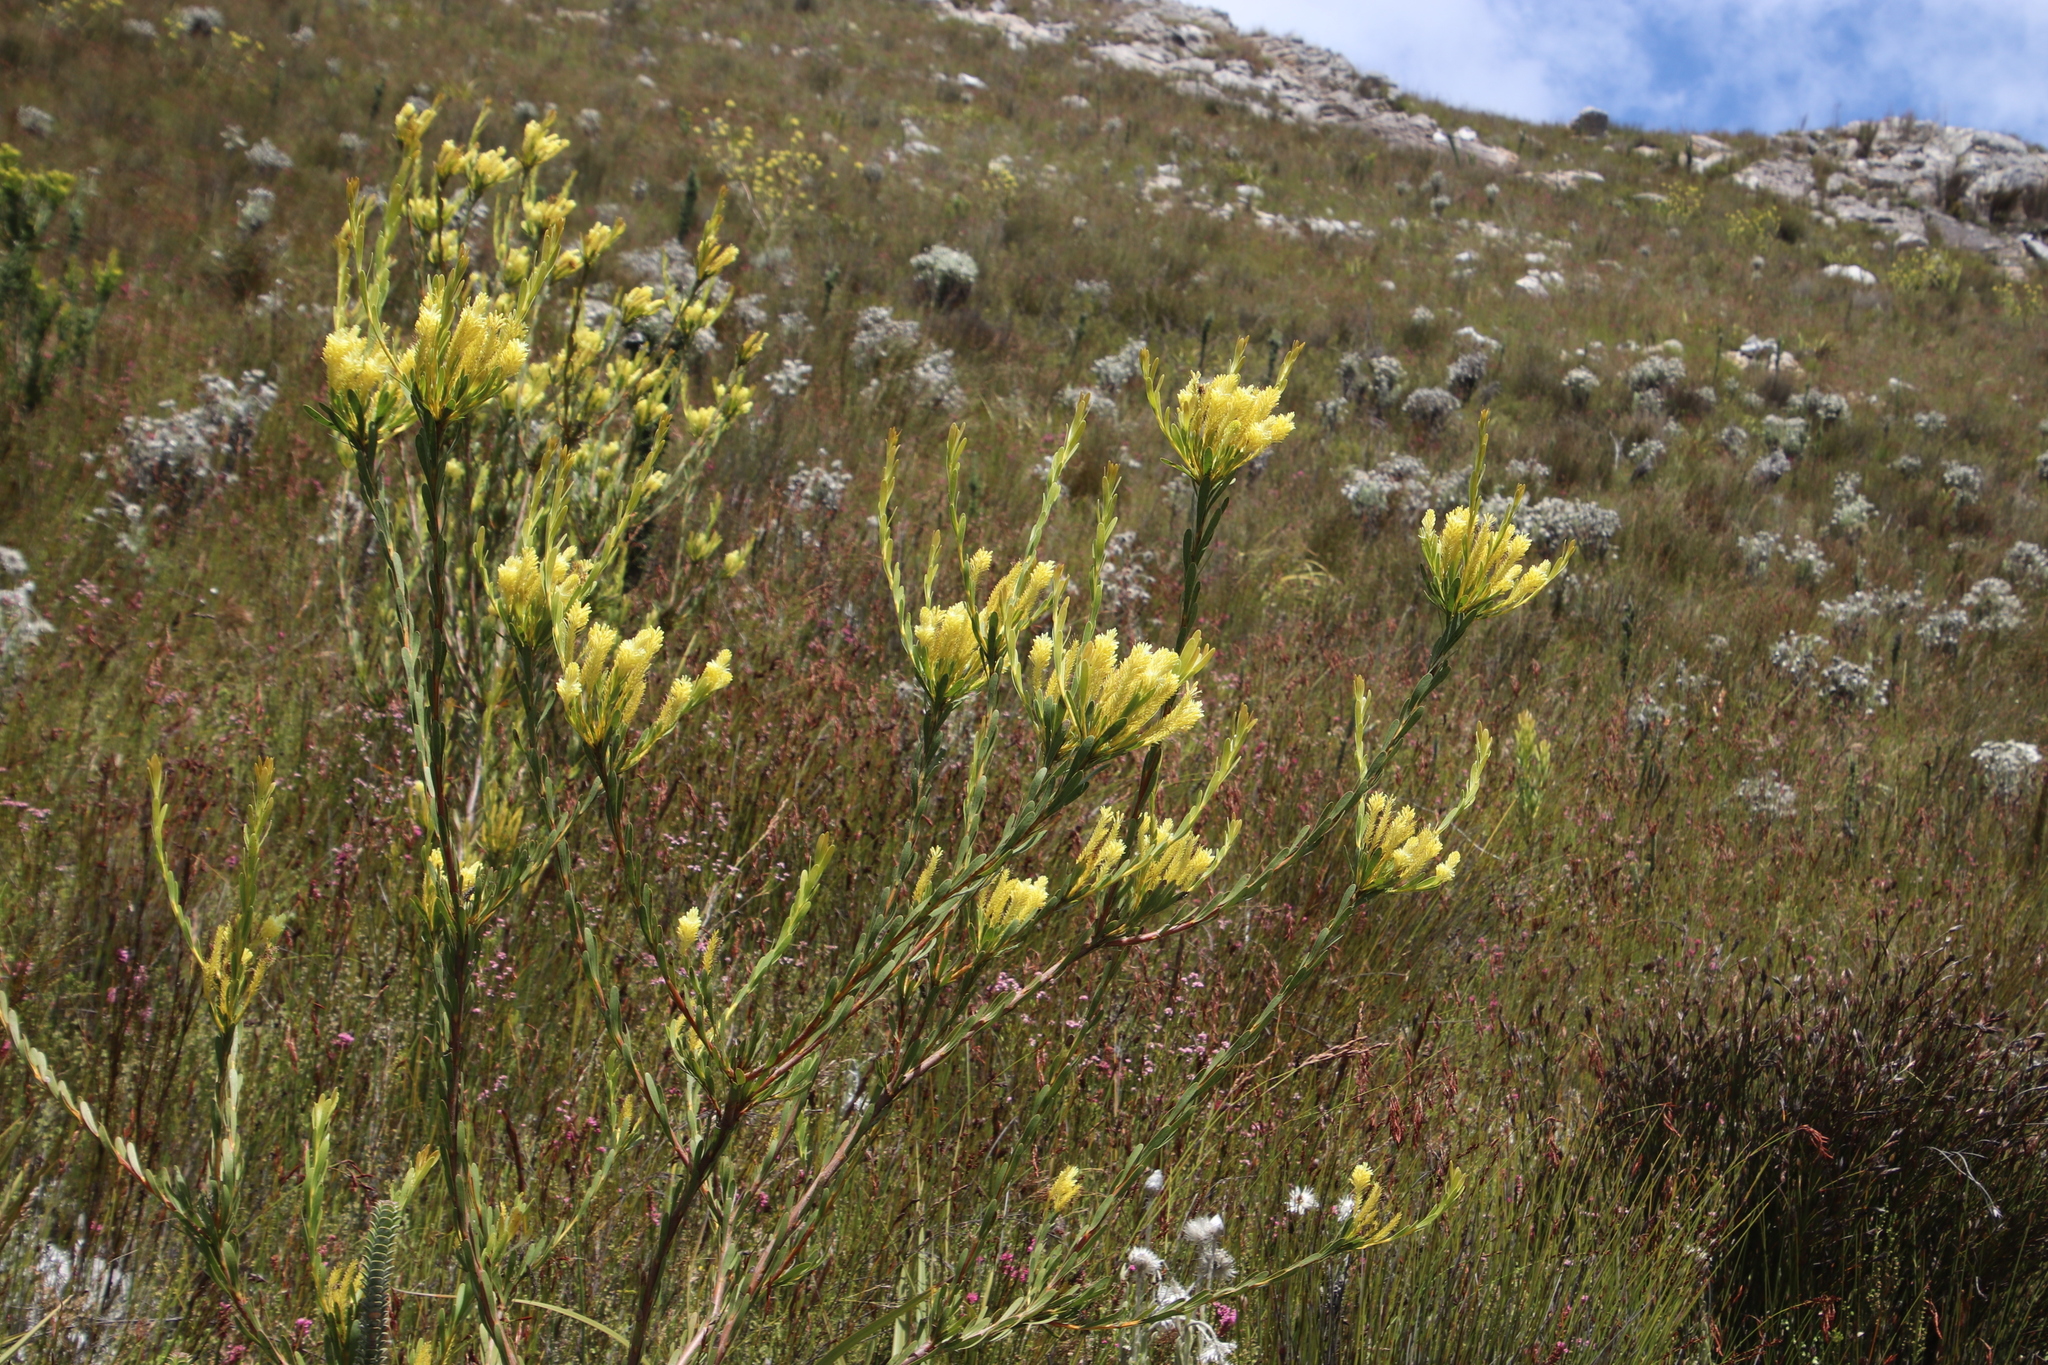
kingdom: Plantae
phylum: Tracheophyta
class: Magnoliopsida
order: Proteales
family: Proteaceae
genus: Aulax
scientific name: Aulax umbellata
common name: Broad-leaf featherbush
